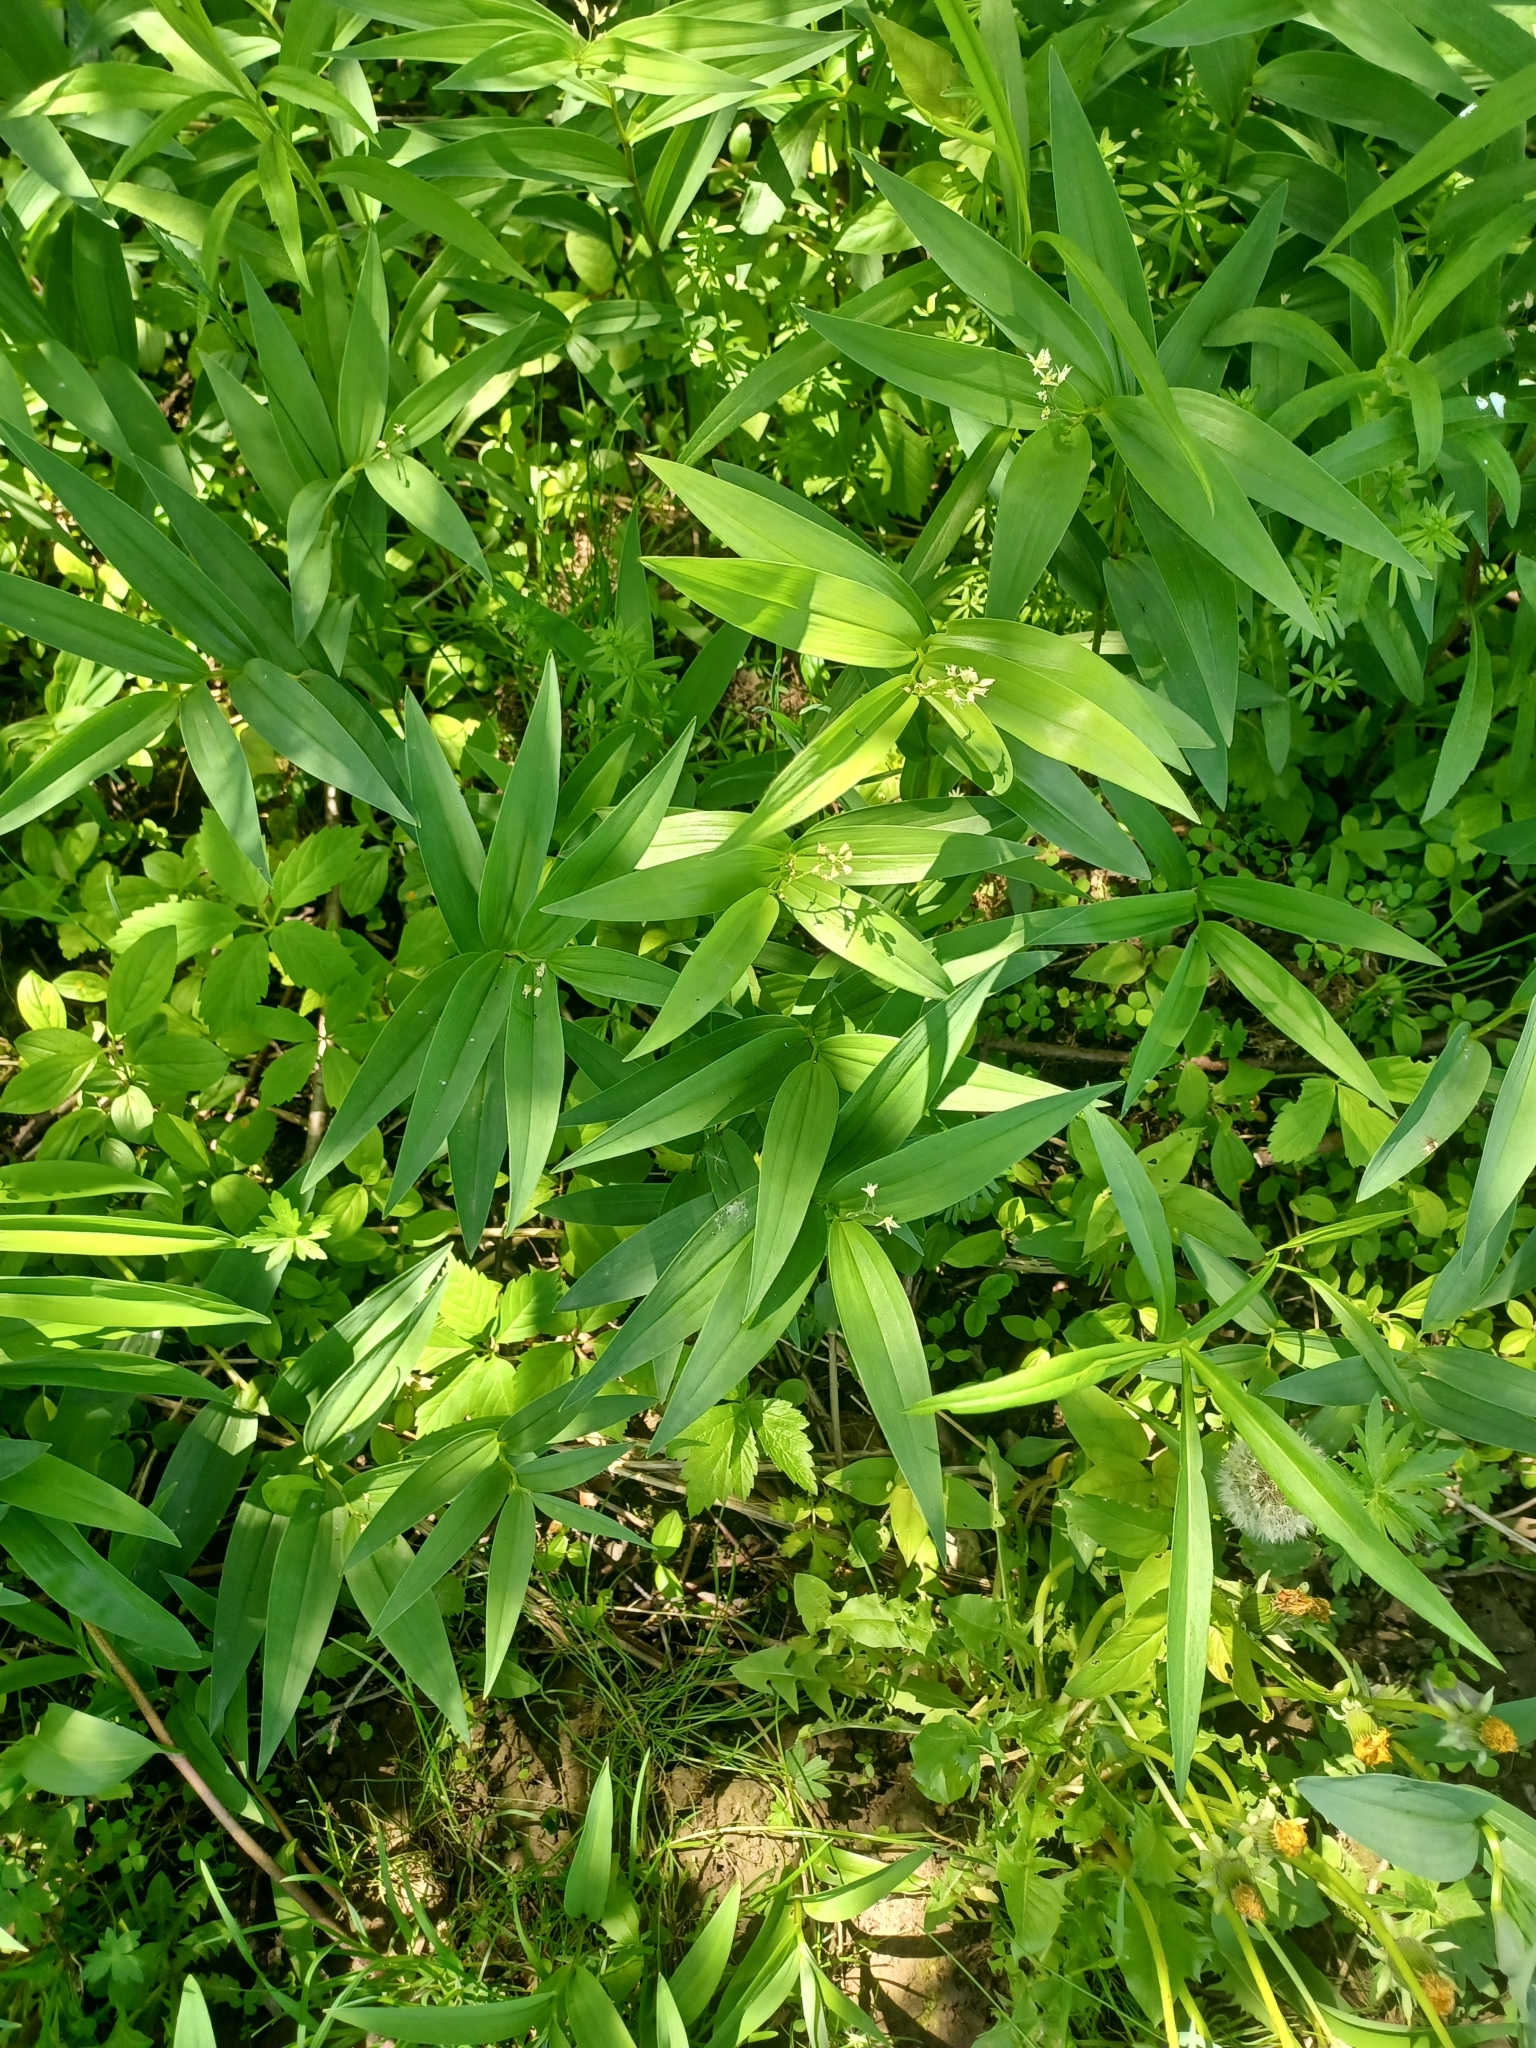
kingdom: Plantae
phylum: Tracheophyta
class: Liliopsida
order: Asparagales
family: Asparagaceae
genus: Maianthemum
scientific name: Maianthemum stellatum
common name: Little false solomon's seal
